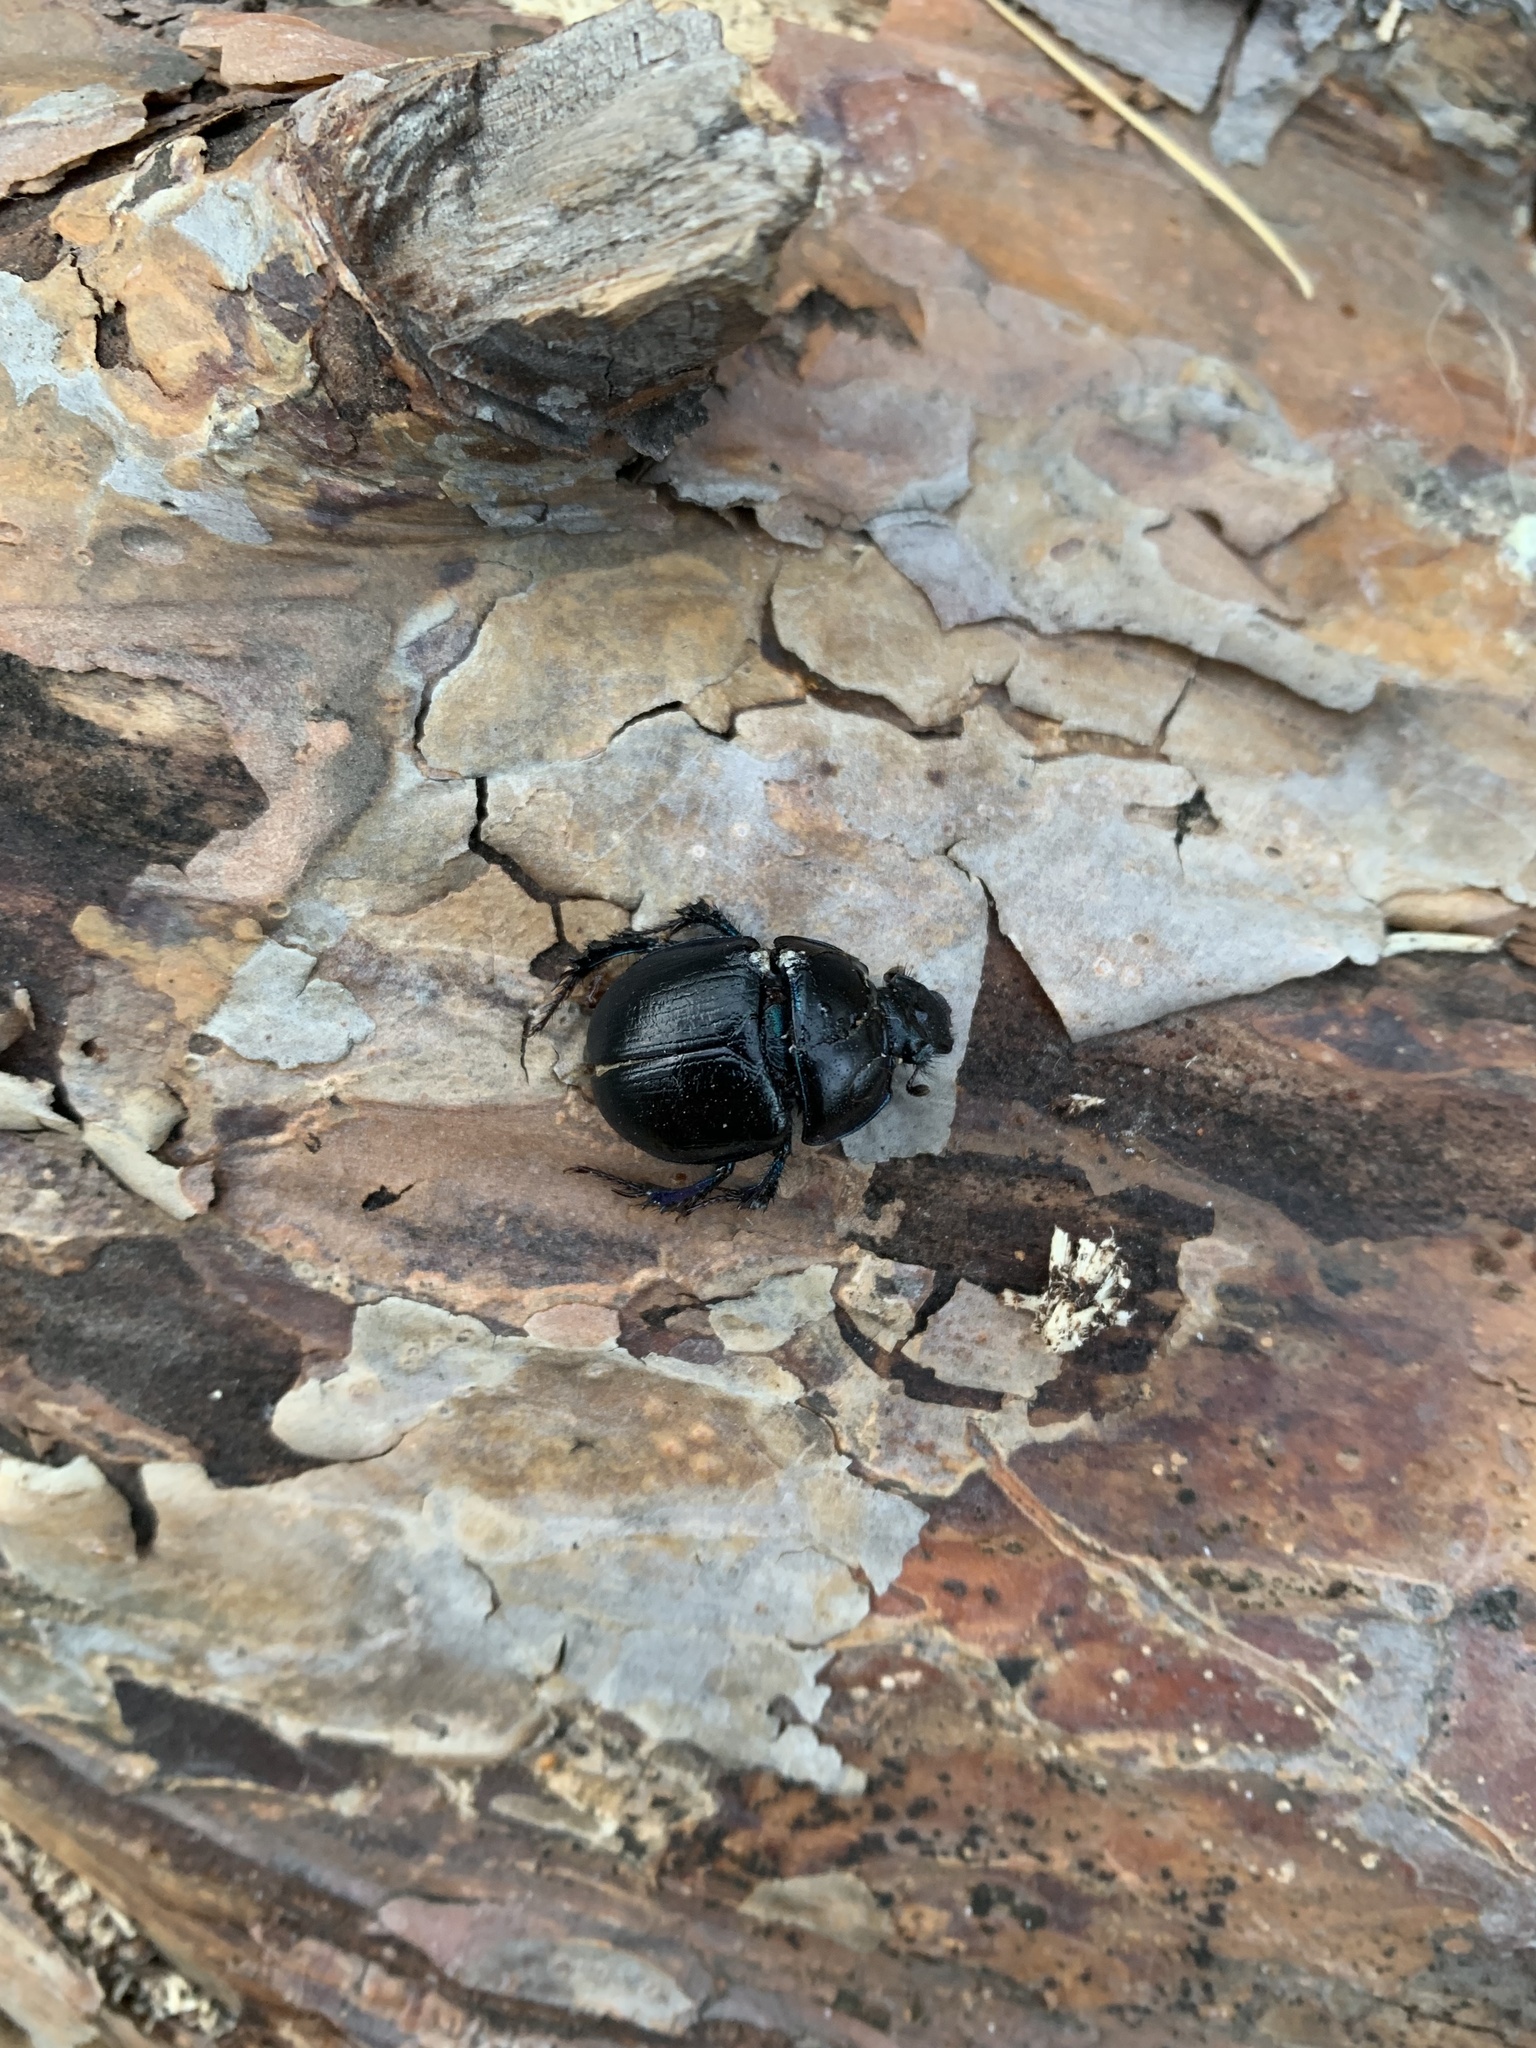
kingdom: Animalia
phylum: Arthropoda
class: Insecta
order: Coleoptera
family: Geotrupidae
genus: Anoplotrupes
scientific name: Anoplotrupes stercorosus
